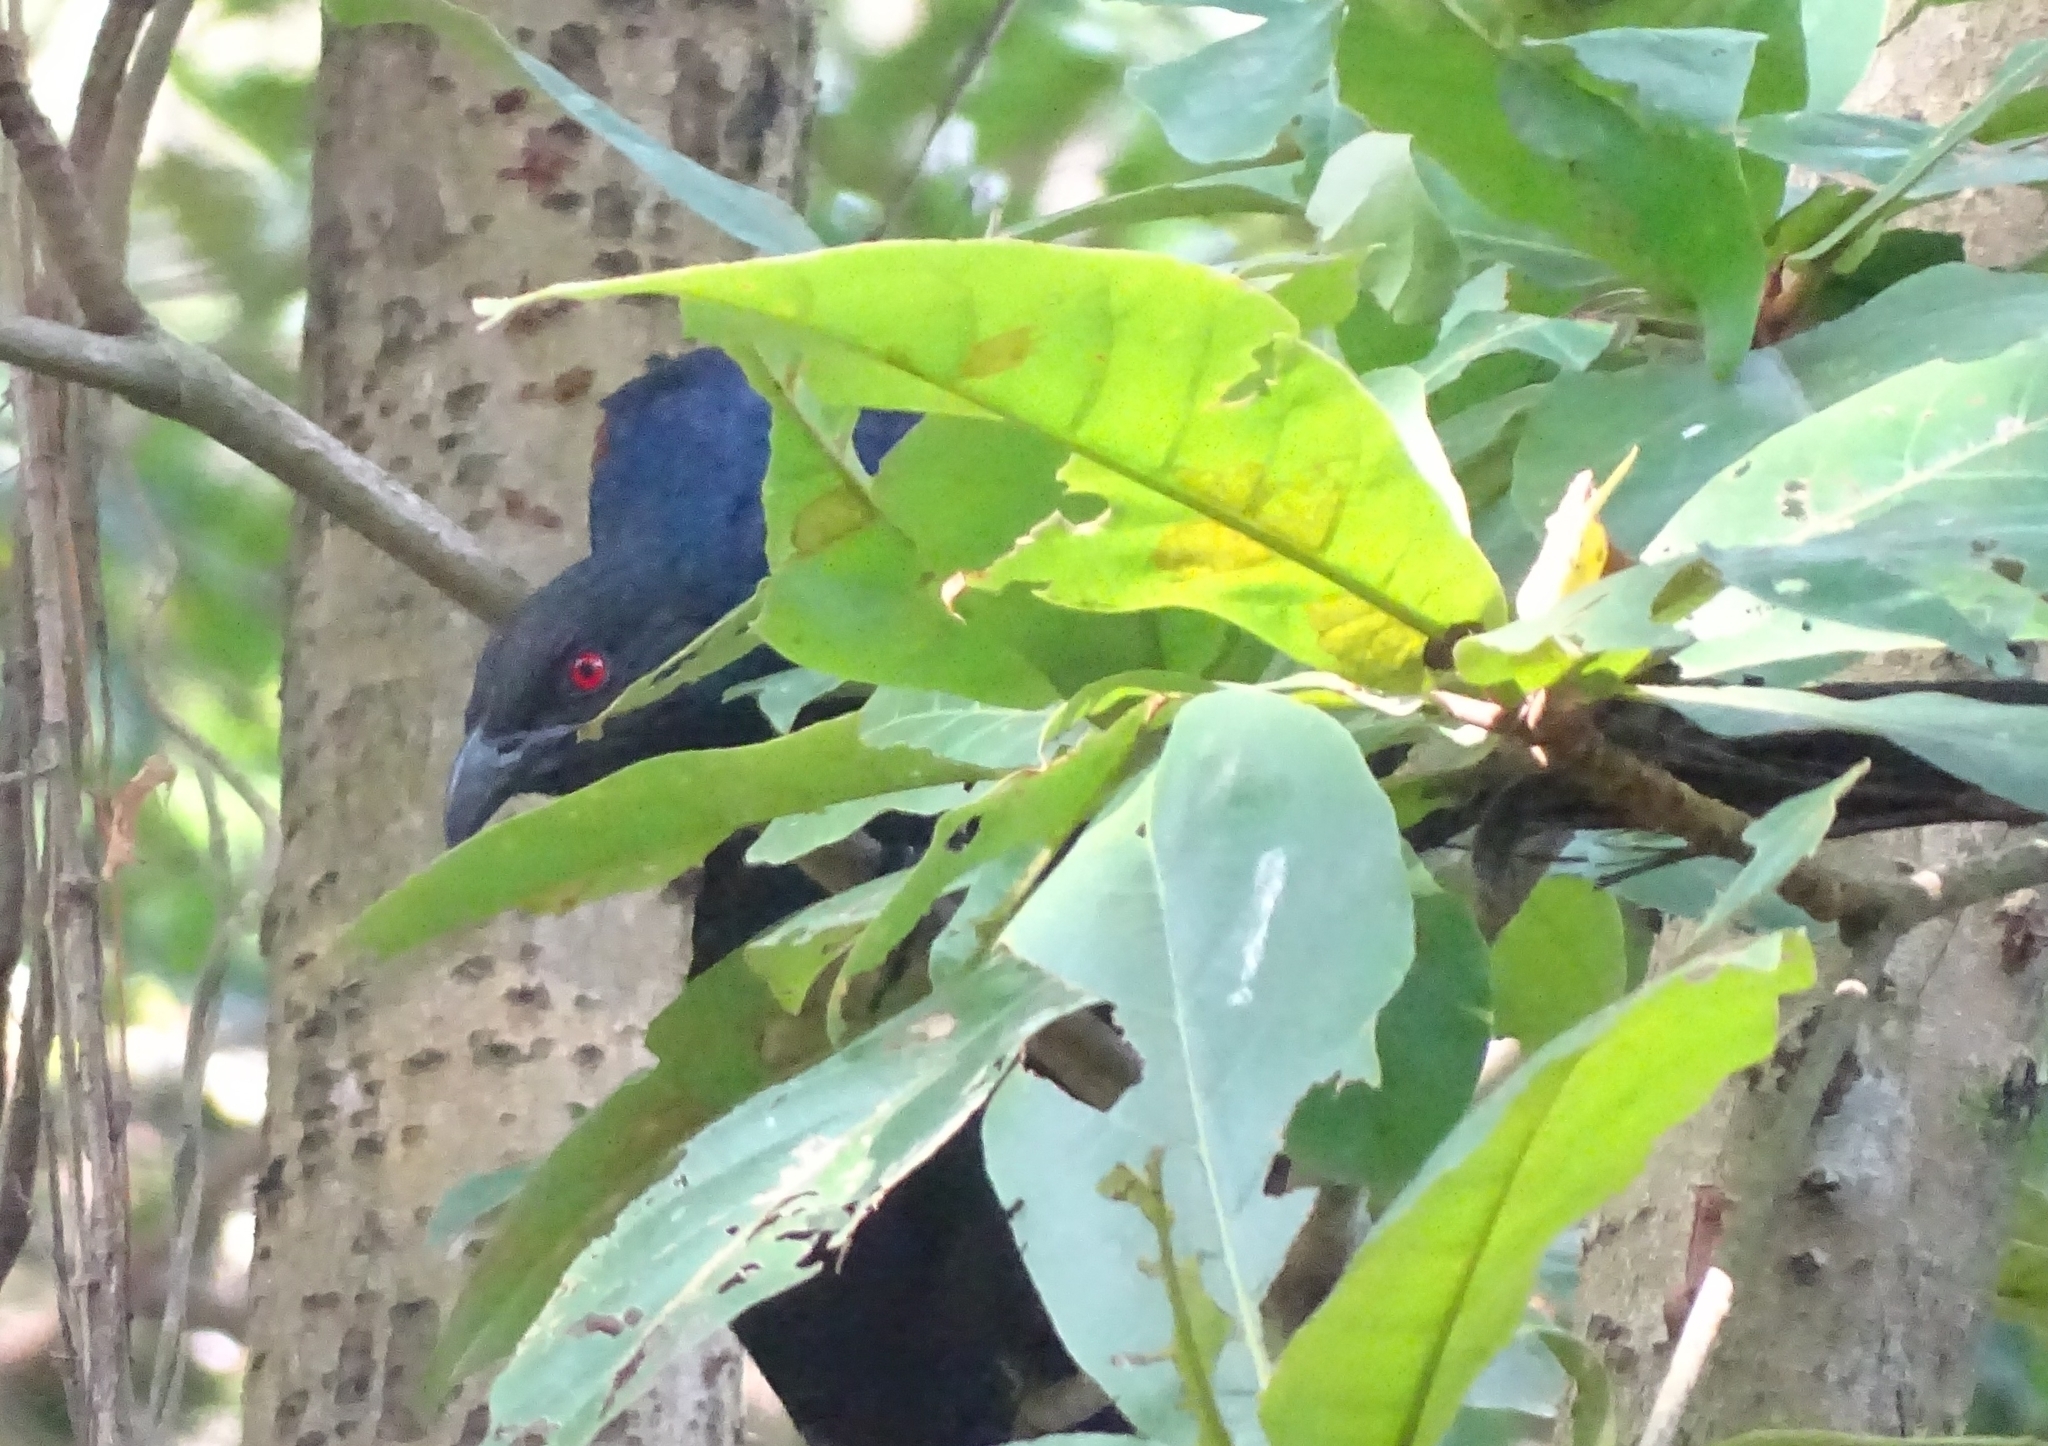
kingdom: Animalia
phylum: Chordata
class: Aves
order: Cuculiformes
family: Cuculidae
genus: Centropus
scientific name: Centropus sinensis
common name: Greater coucal
